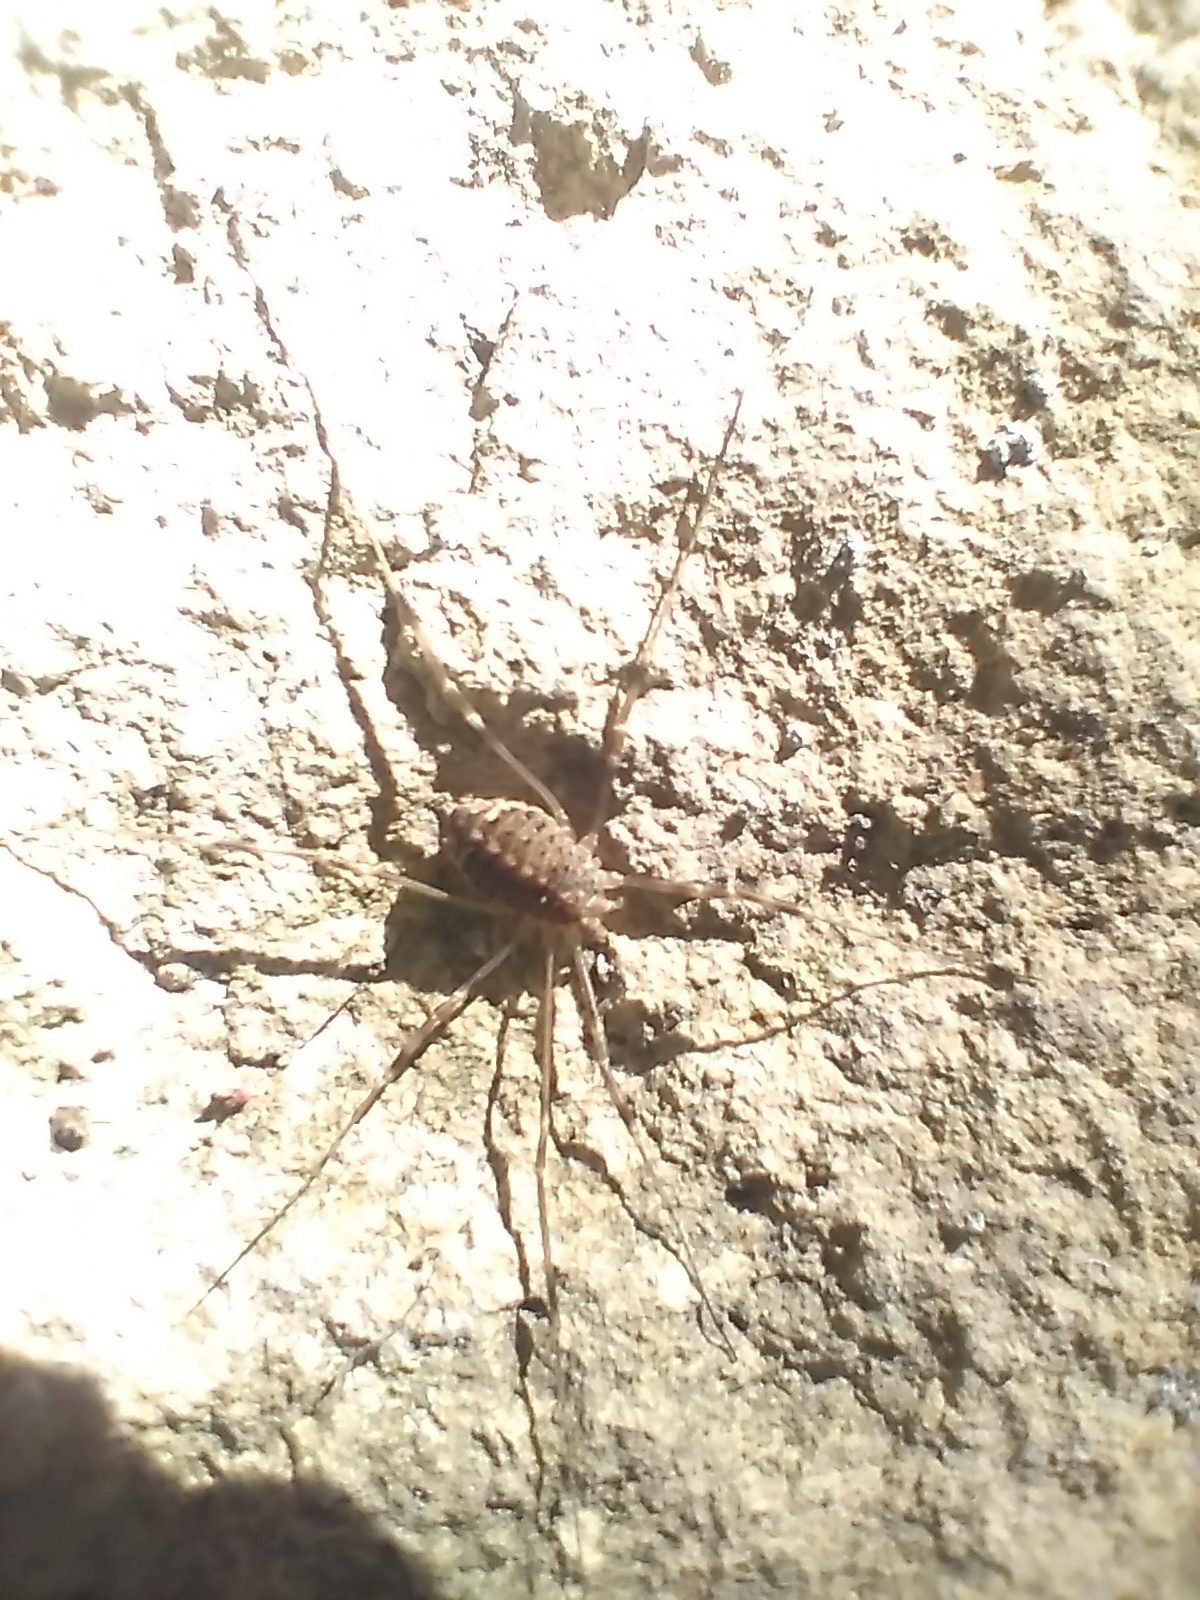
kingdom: Animalia
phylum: Arthropoda
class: Arachnida
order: Opiliones
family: Phalangiidae
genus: Opilio
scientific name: Opilio saxatilis
